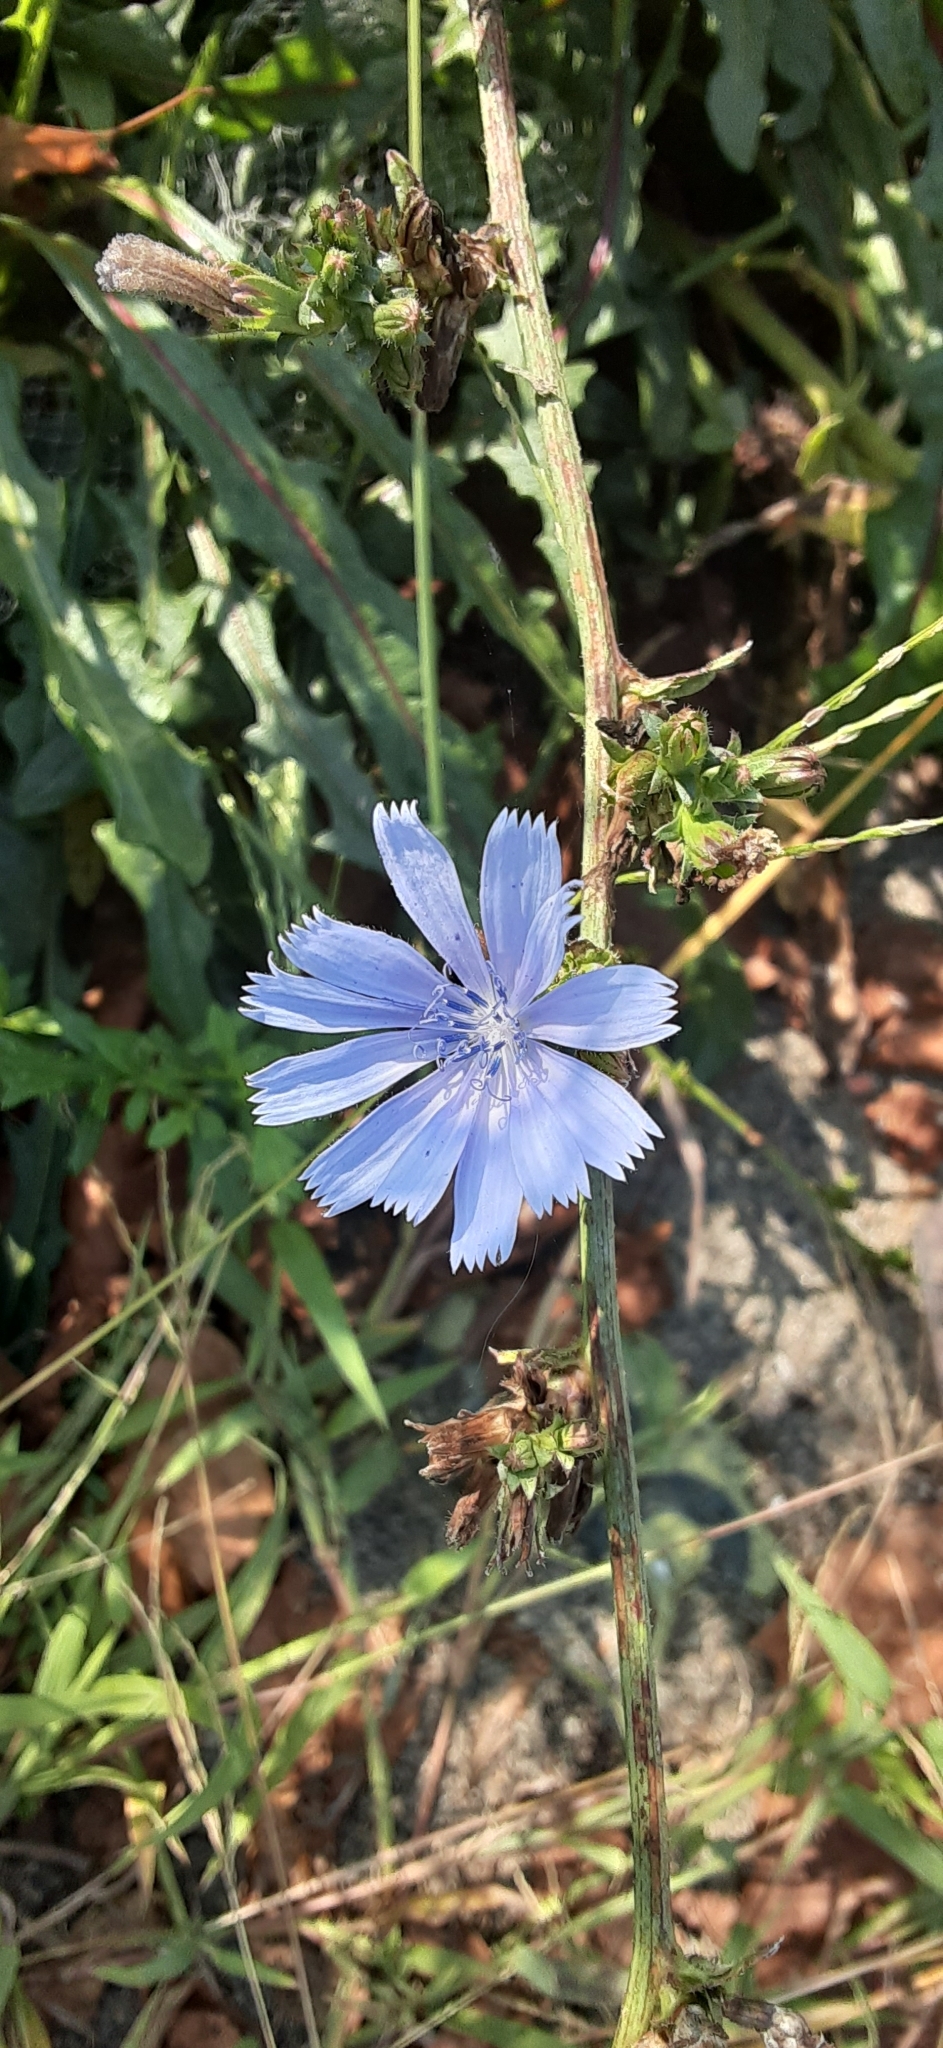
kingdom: Plantae
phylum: Tracheophyta
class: Magnoliopsida
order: Asterales
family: Asteraceae
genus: Cichorium
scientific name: Cichorium intybus
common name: Chicory
